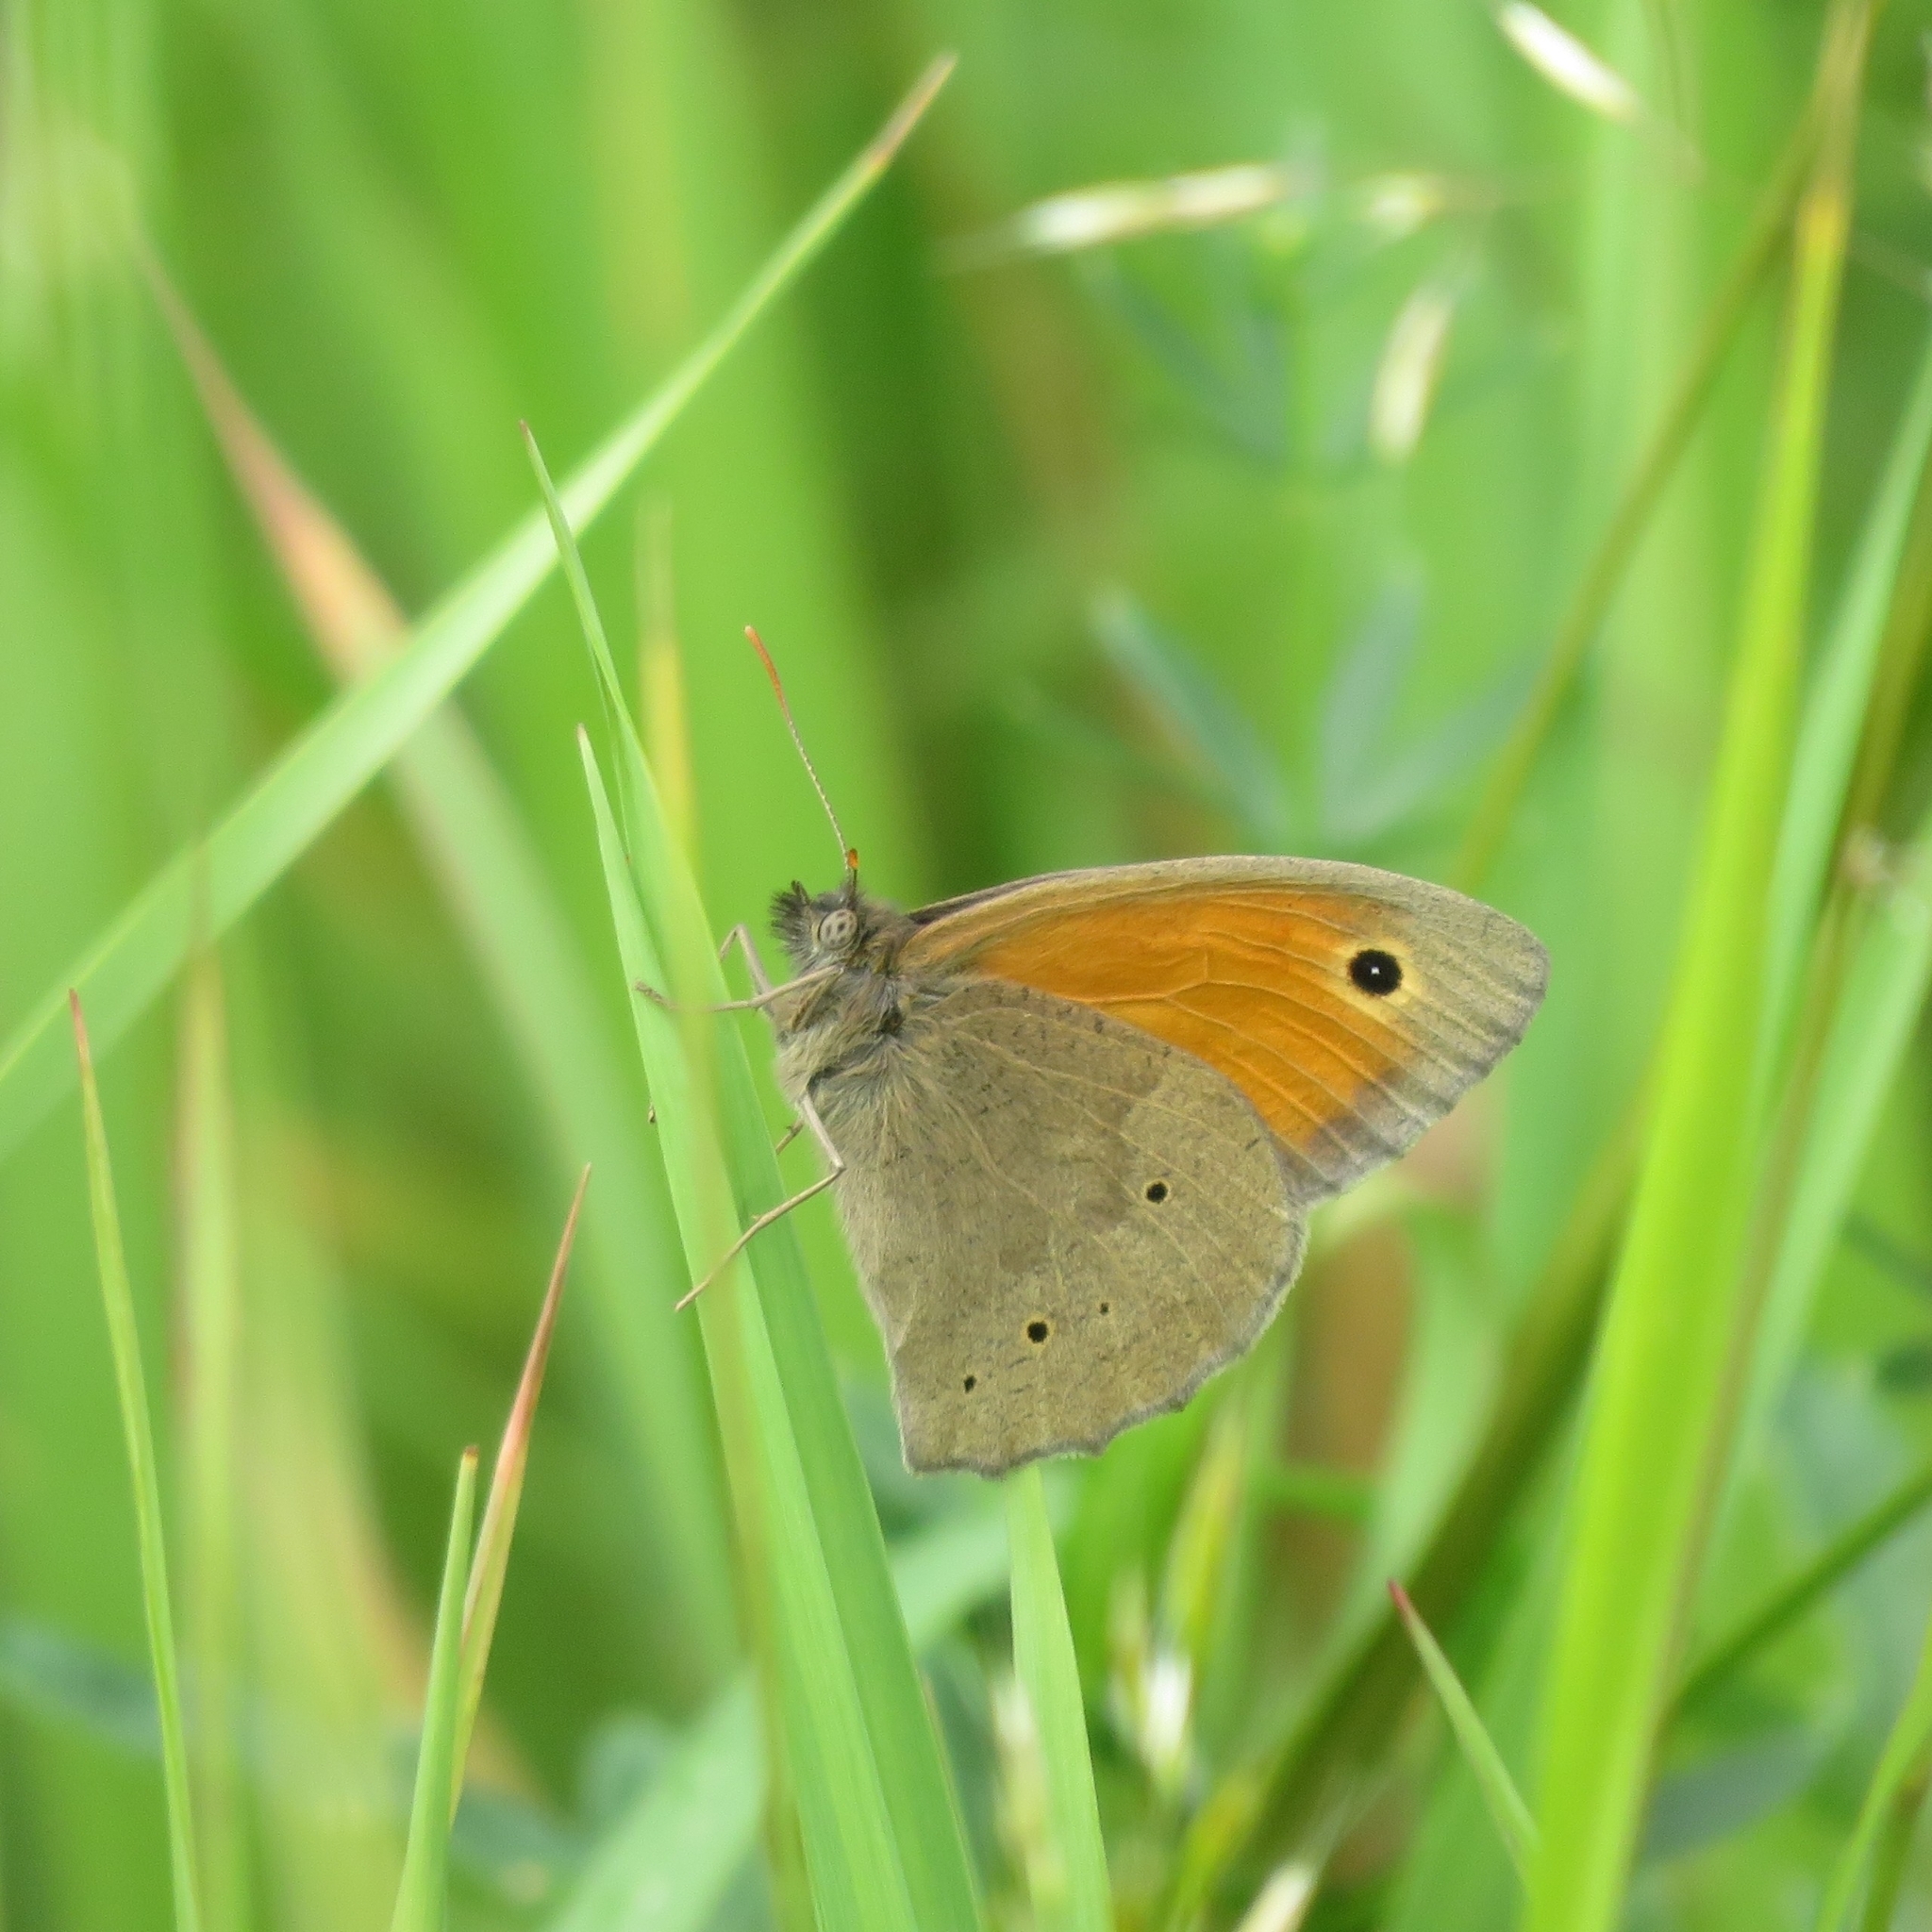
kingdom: Animalia
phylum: Arthropoda
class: Insecta
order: Lepidoptera
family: Nymphalidae
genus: Maniola
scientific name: Maniola jurtina
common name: Meadow brown
